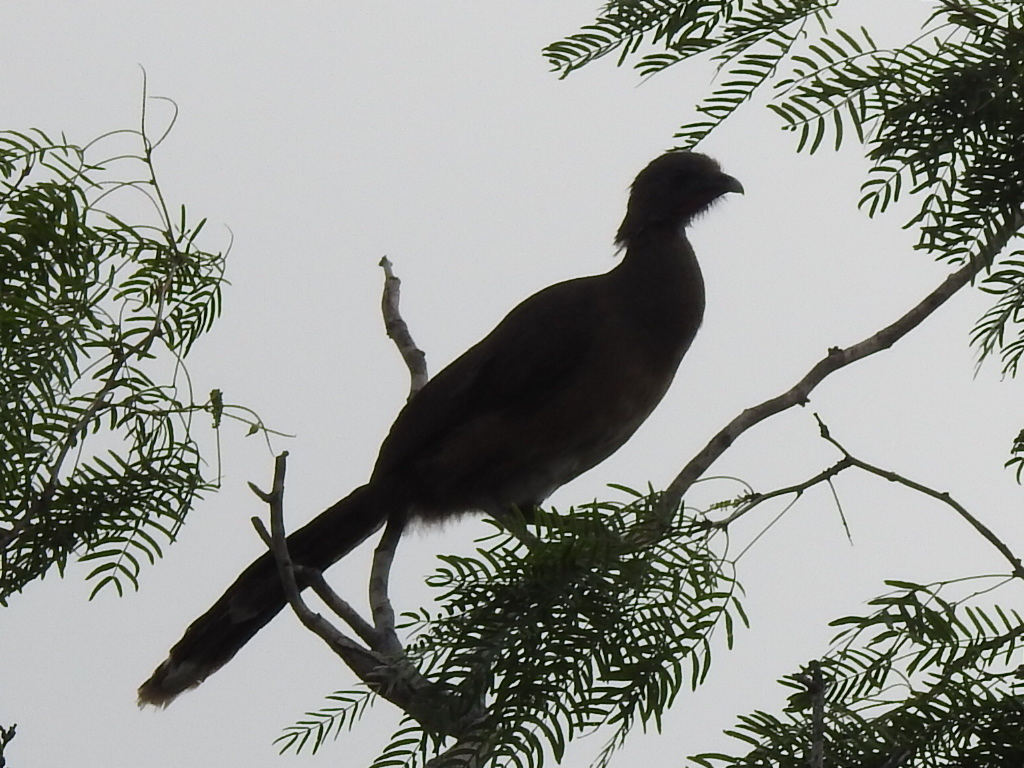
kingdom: Animalia
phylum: Chordata
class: Aves
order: Galliformes
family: Cracidae
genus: Ortalis
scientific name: Ortalis vetula
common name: Plain chachalaca
